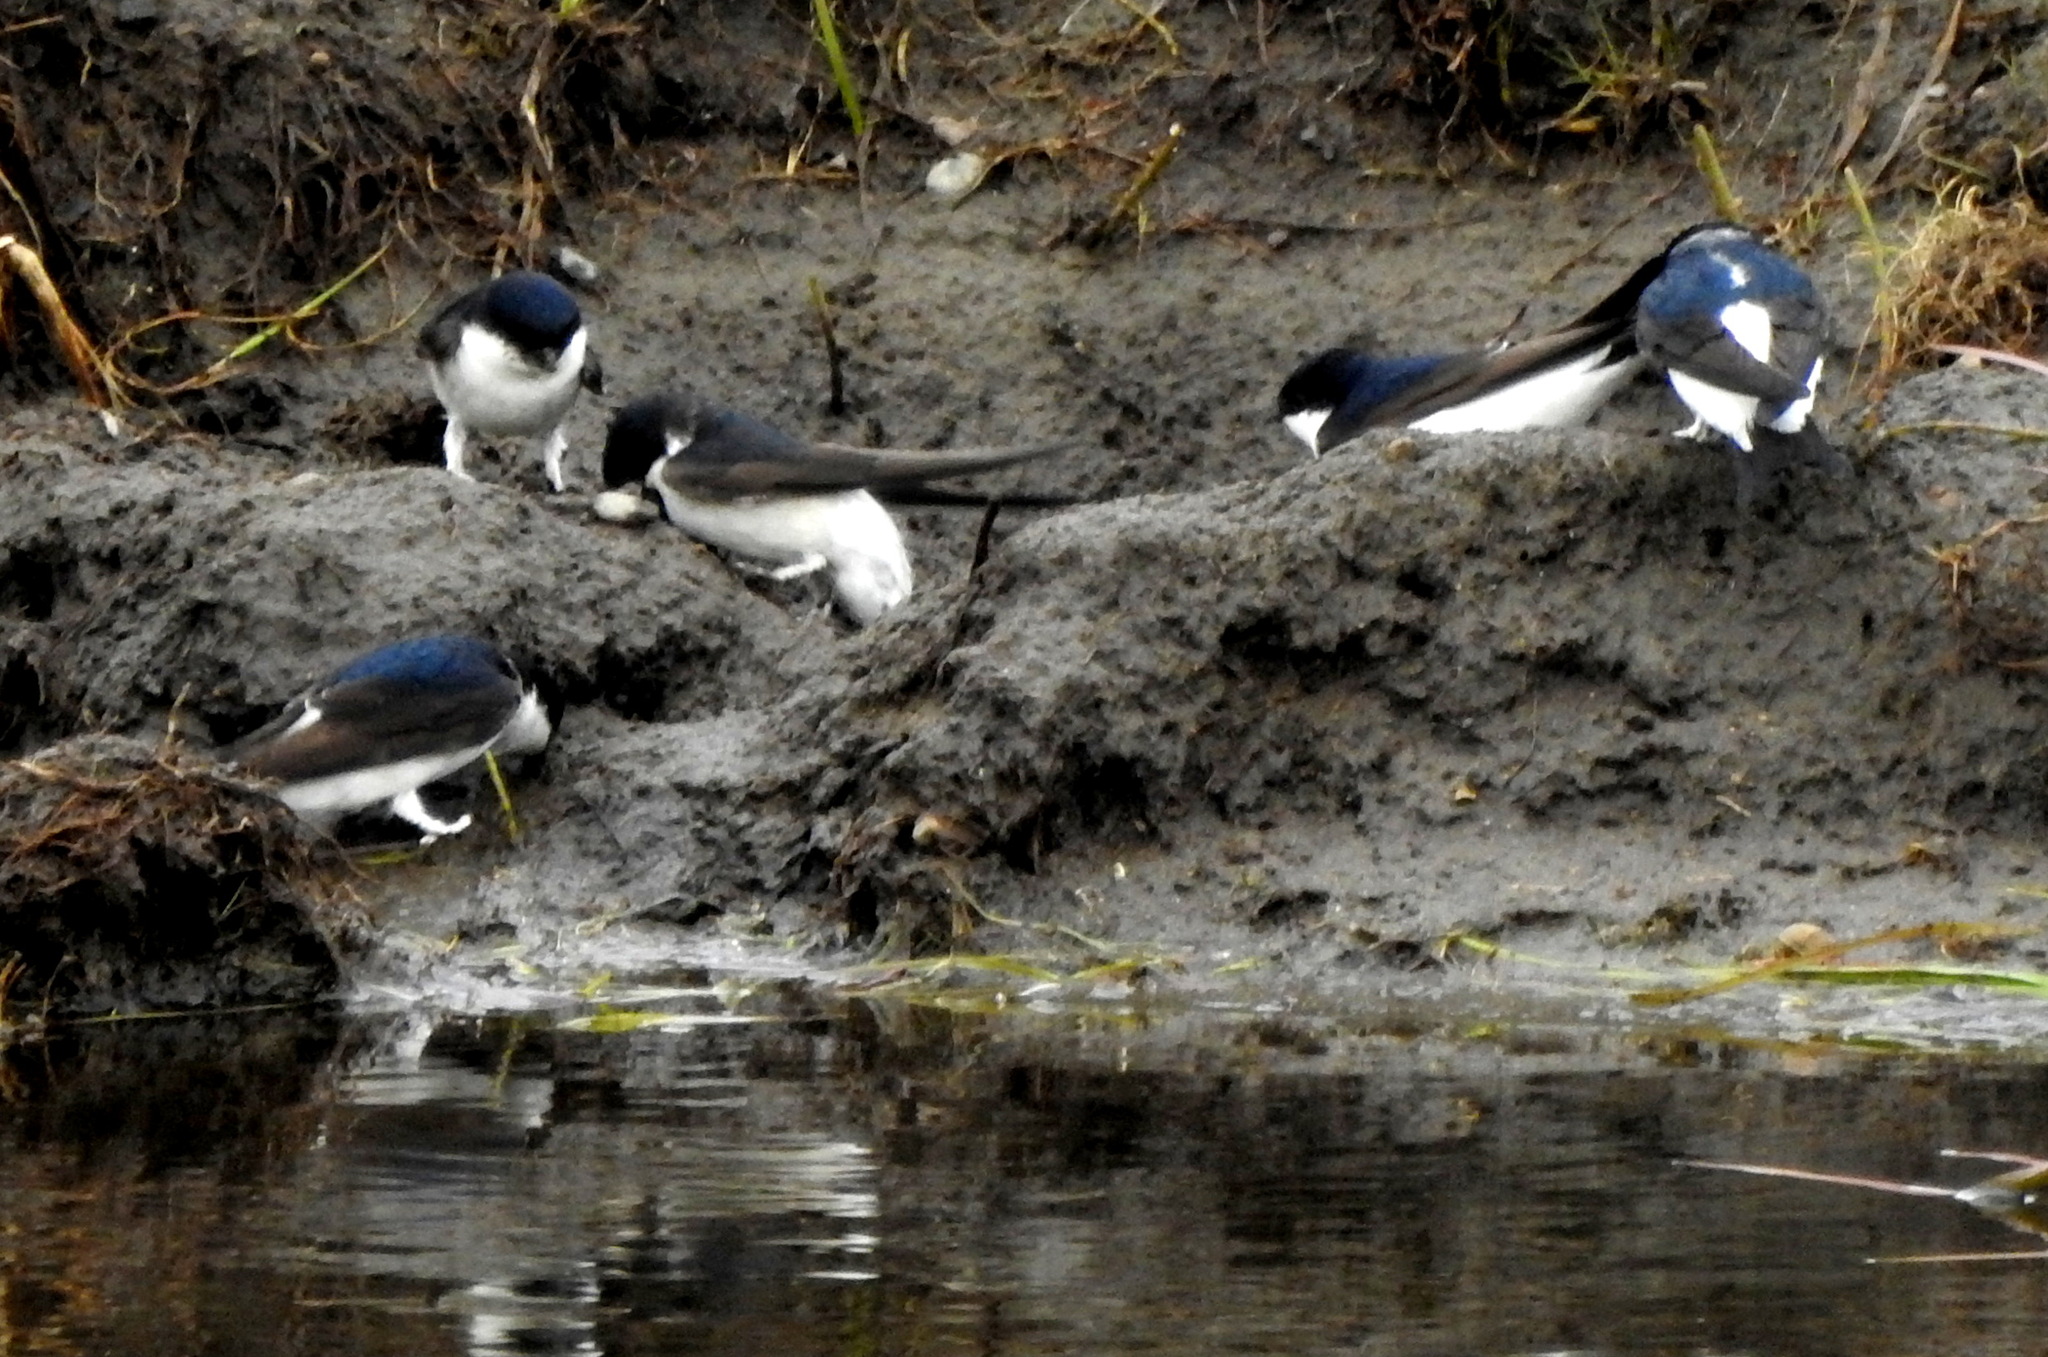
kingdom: Animalia
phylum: Chordata
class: Aves
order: Passeriformes
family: Hirundinidae
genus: Delichon
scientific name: Delichon urbicum
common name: Common house martin
